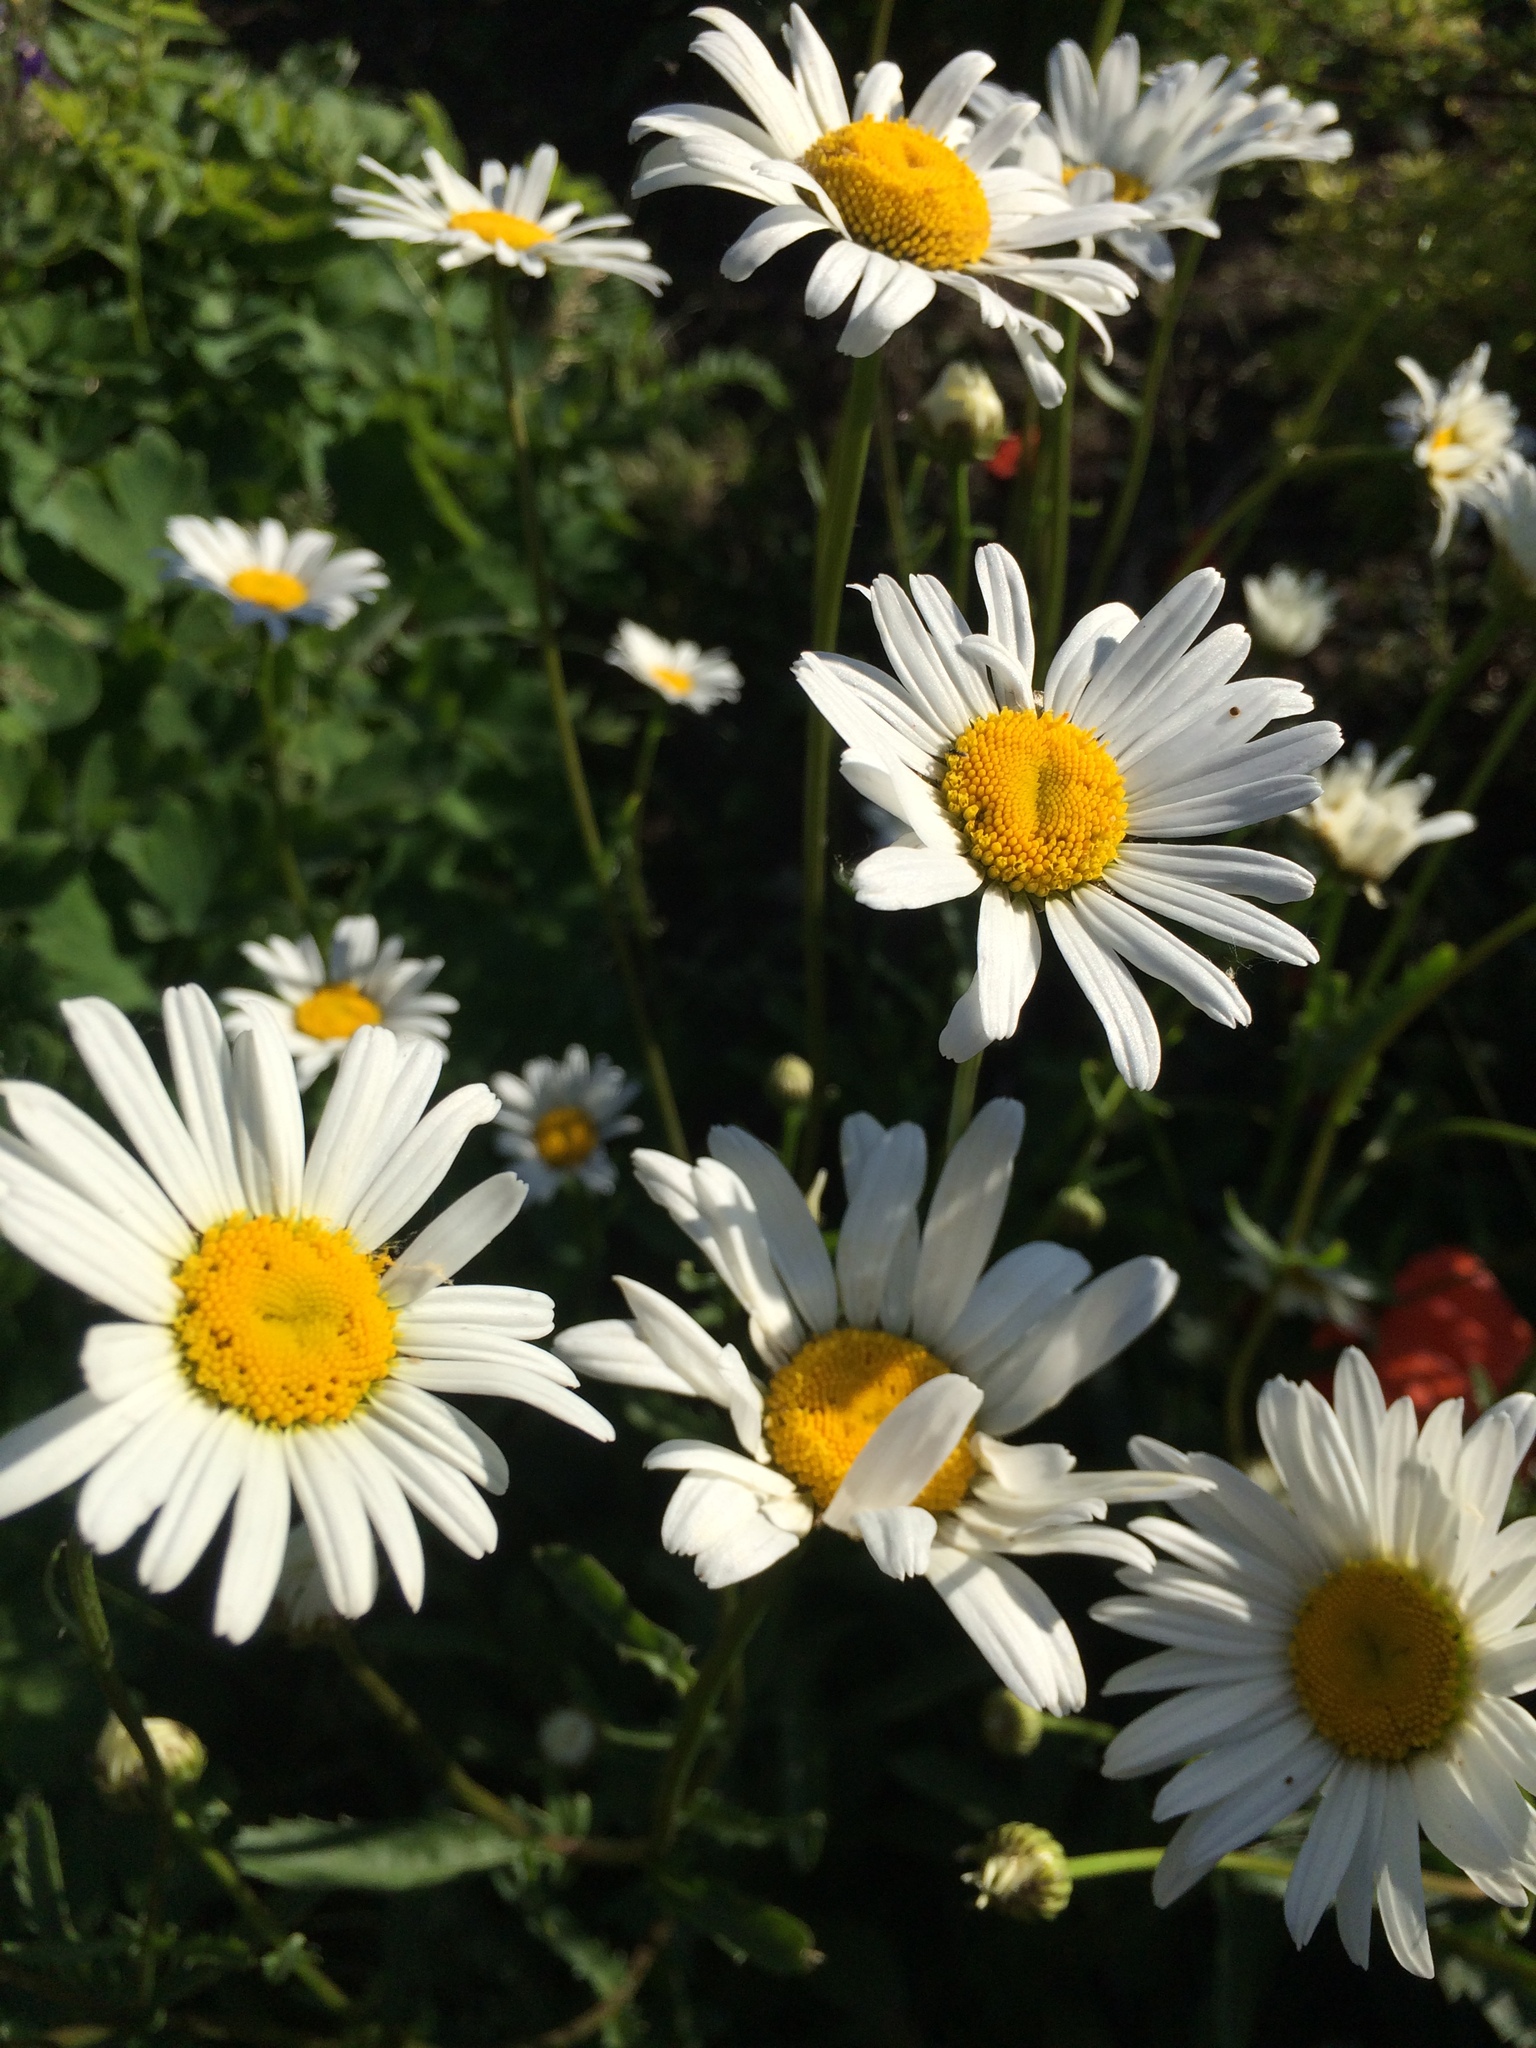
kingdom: Plantae
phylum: Tracheophyta
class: Magnoliopsida
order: Asterales
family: Asteraceae
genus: Leucanthemum
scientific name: Leucanthemum vulgare
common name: Oxeye daisy
